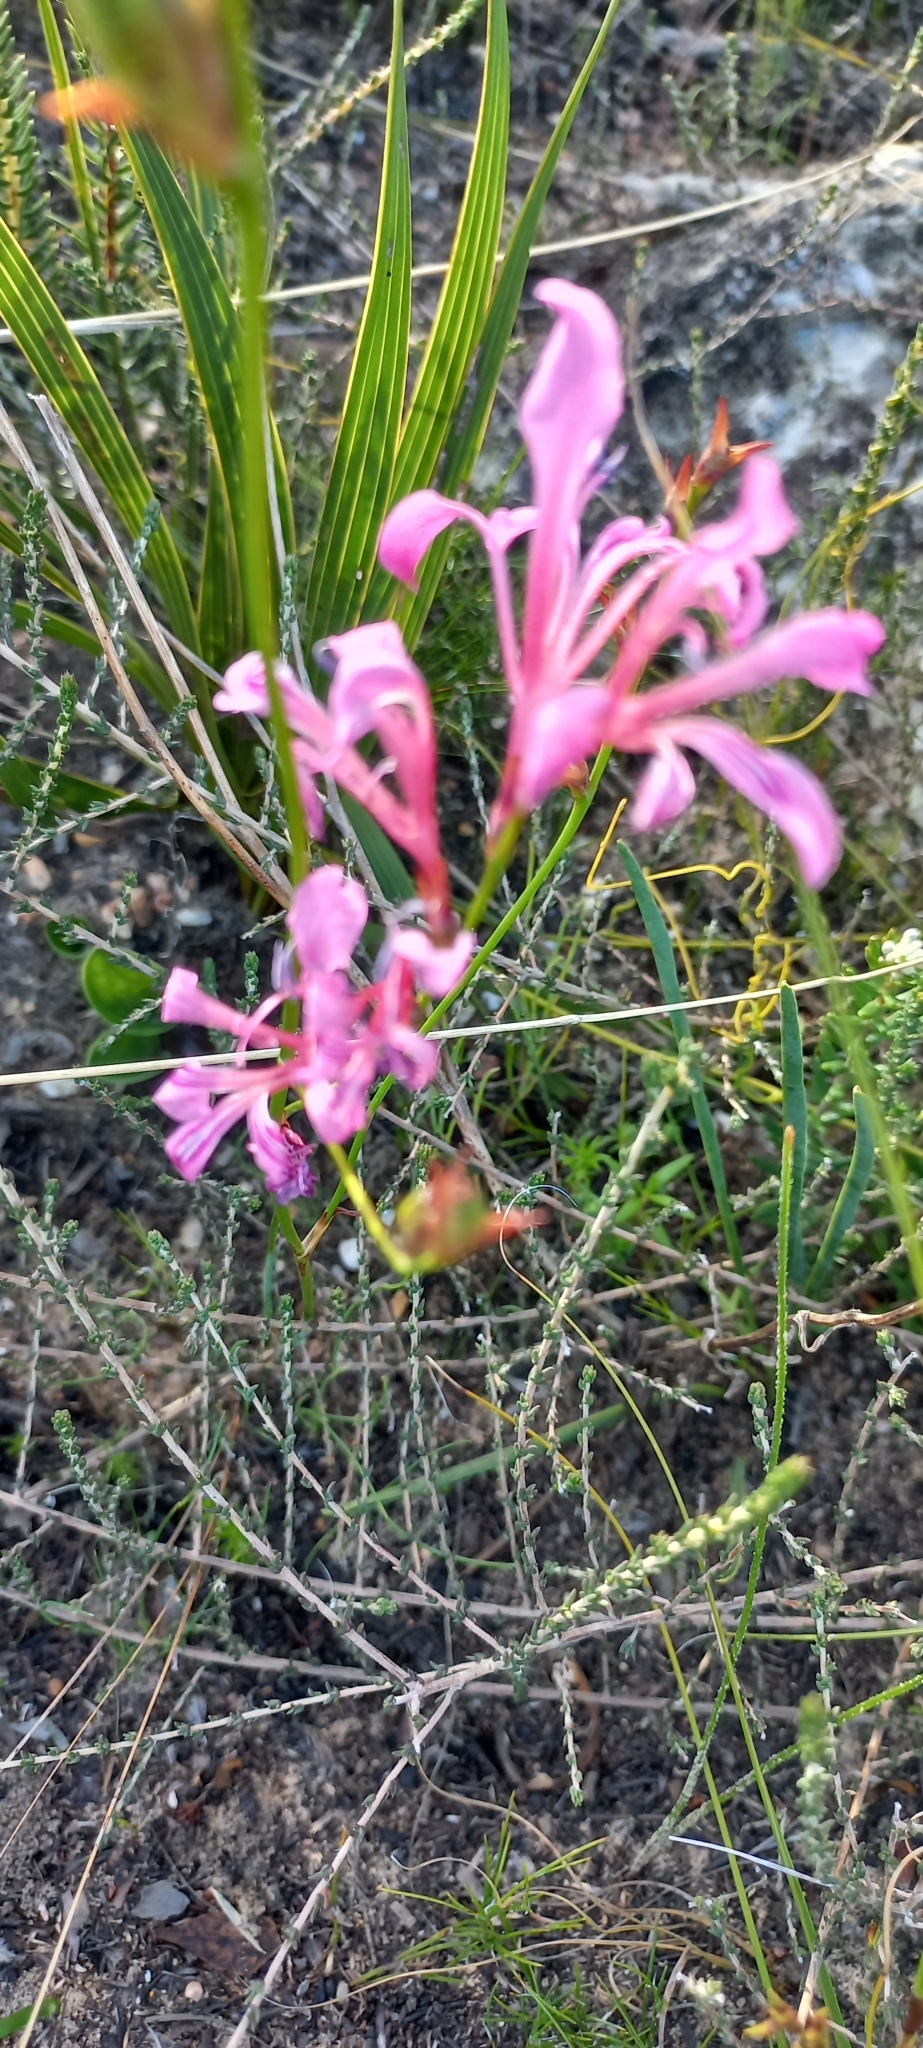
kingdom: Plantae
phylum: Tracheophyta
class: Liliopsida
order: Asparagales
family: Iridaceae
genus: Tritoniopsis
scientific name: Tritoniopsis lata
